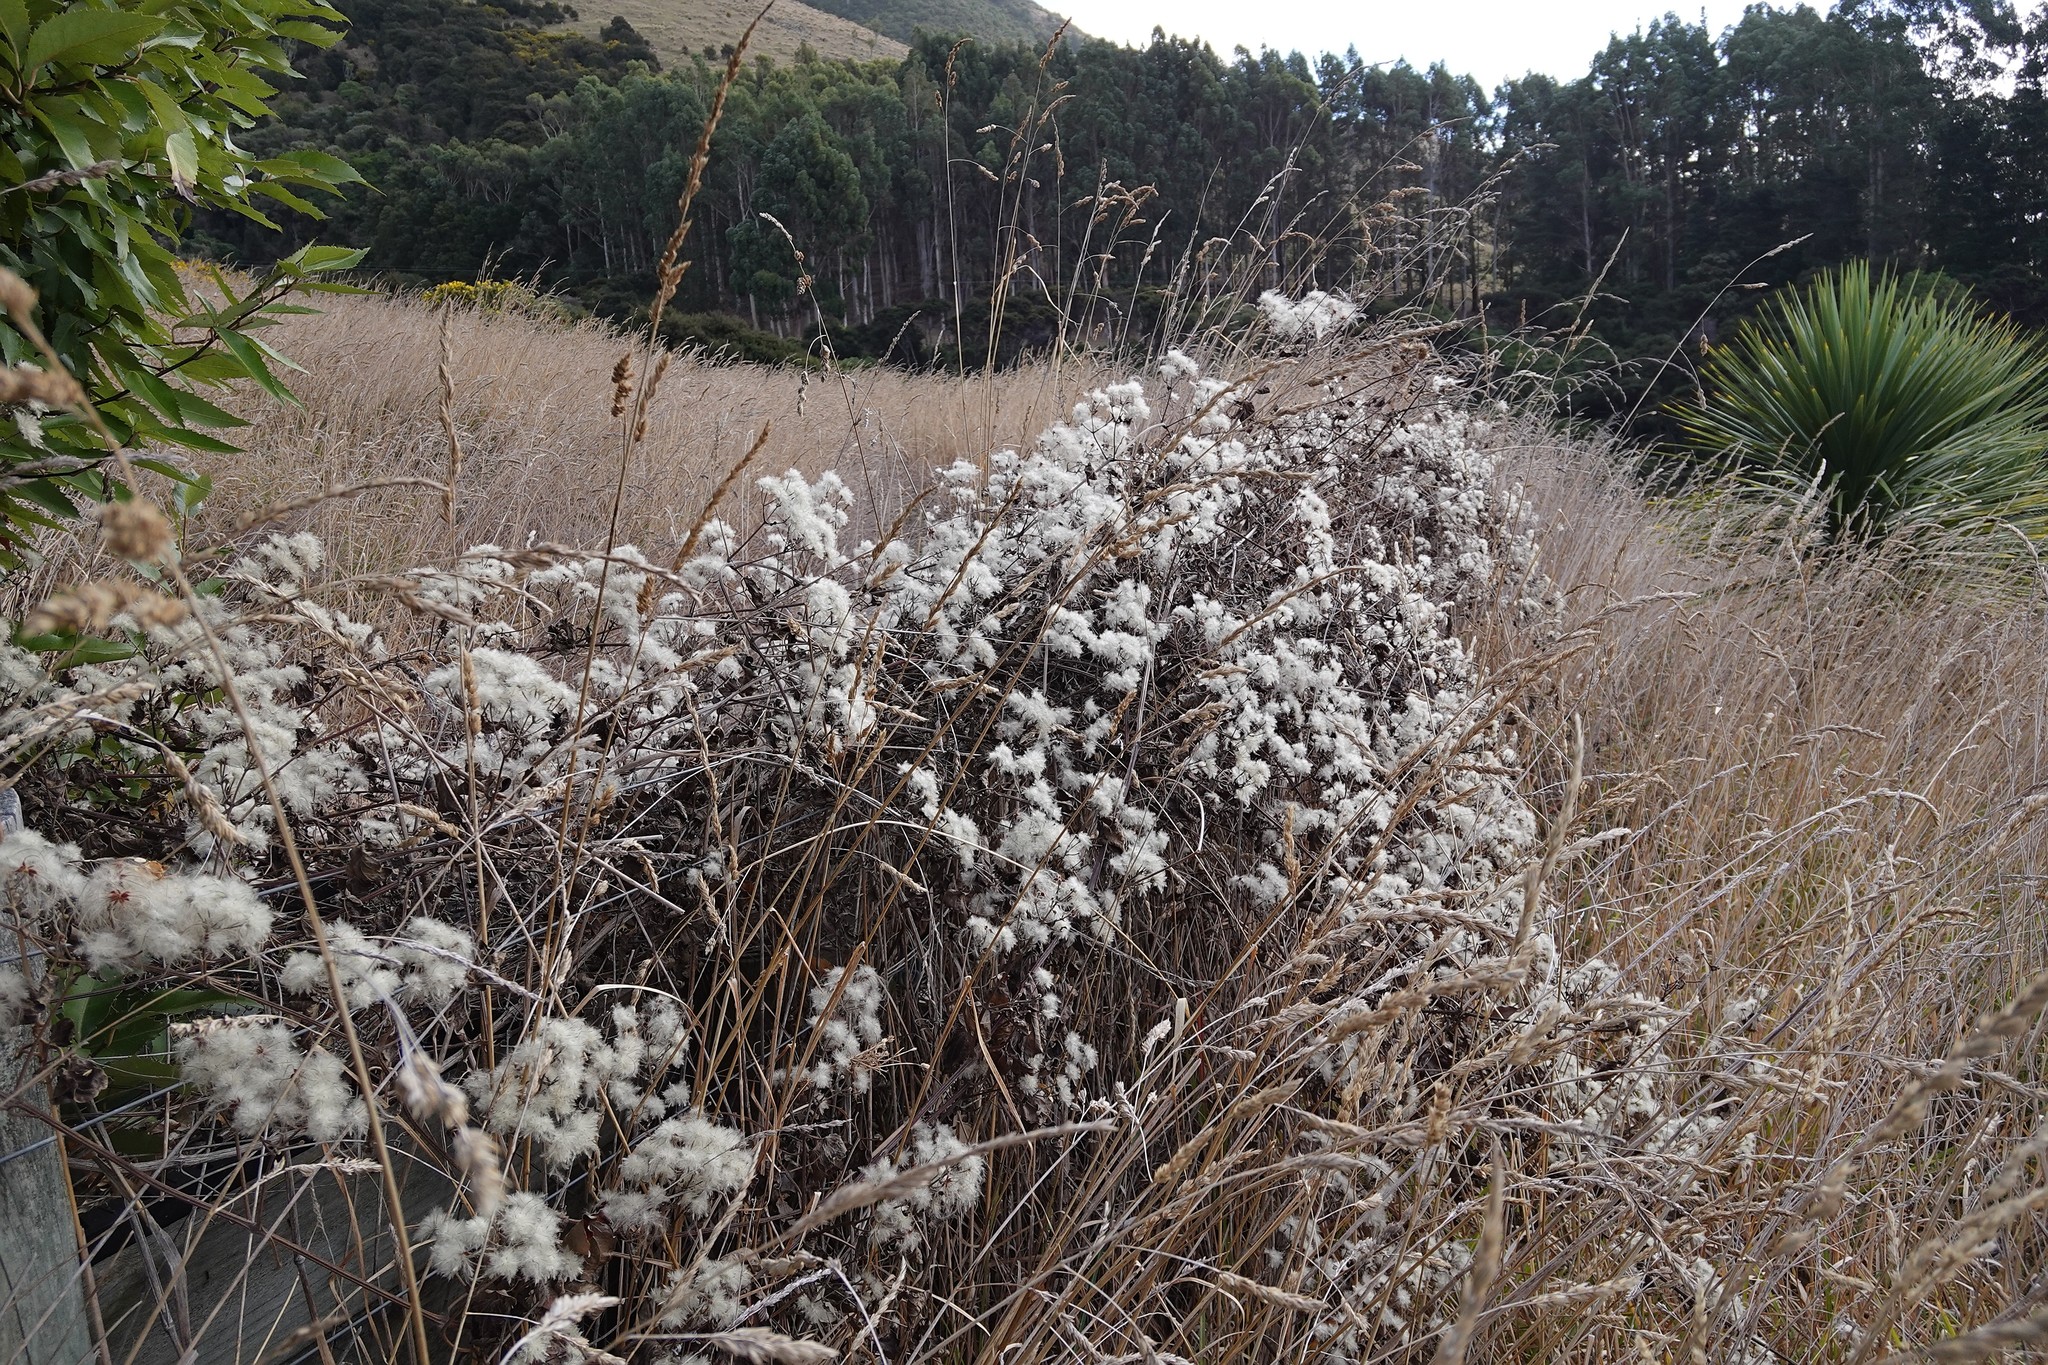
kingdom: Plantae
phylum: Tracheophyta
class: Magnoliopsida
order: Ranunculales
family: Ranunculaceae
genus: Clematis
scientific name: Clematis vitalba
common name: Evergreen clematis
